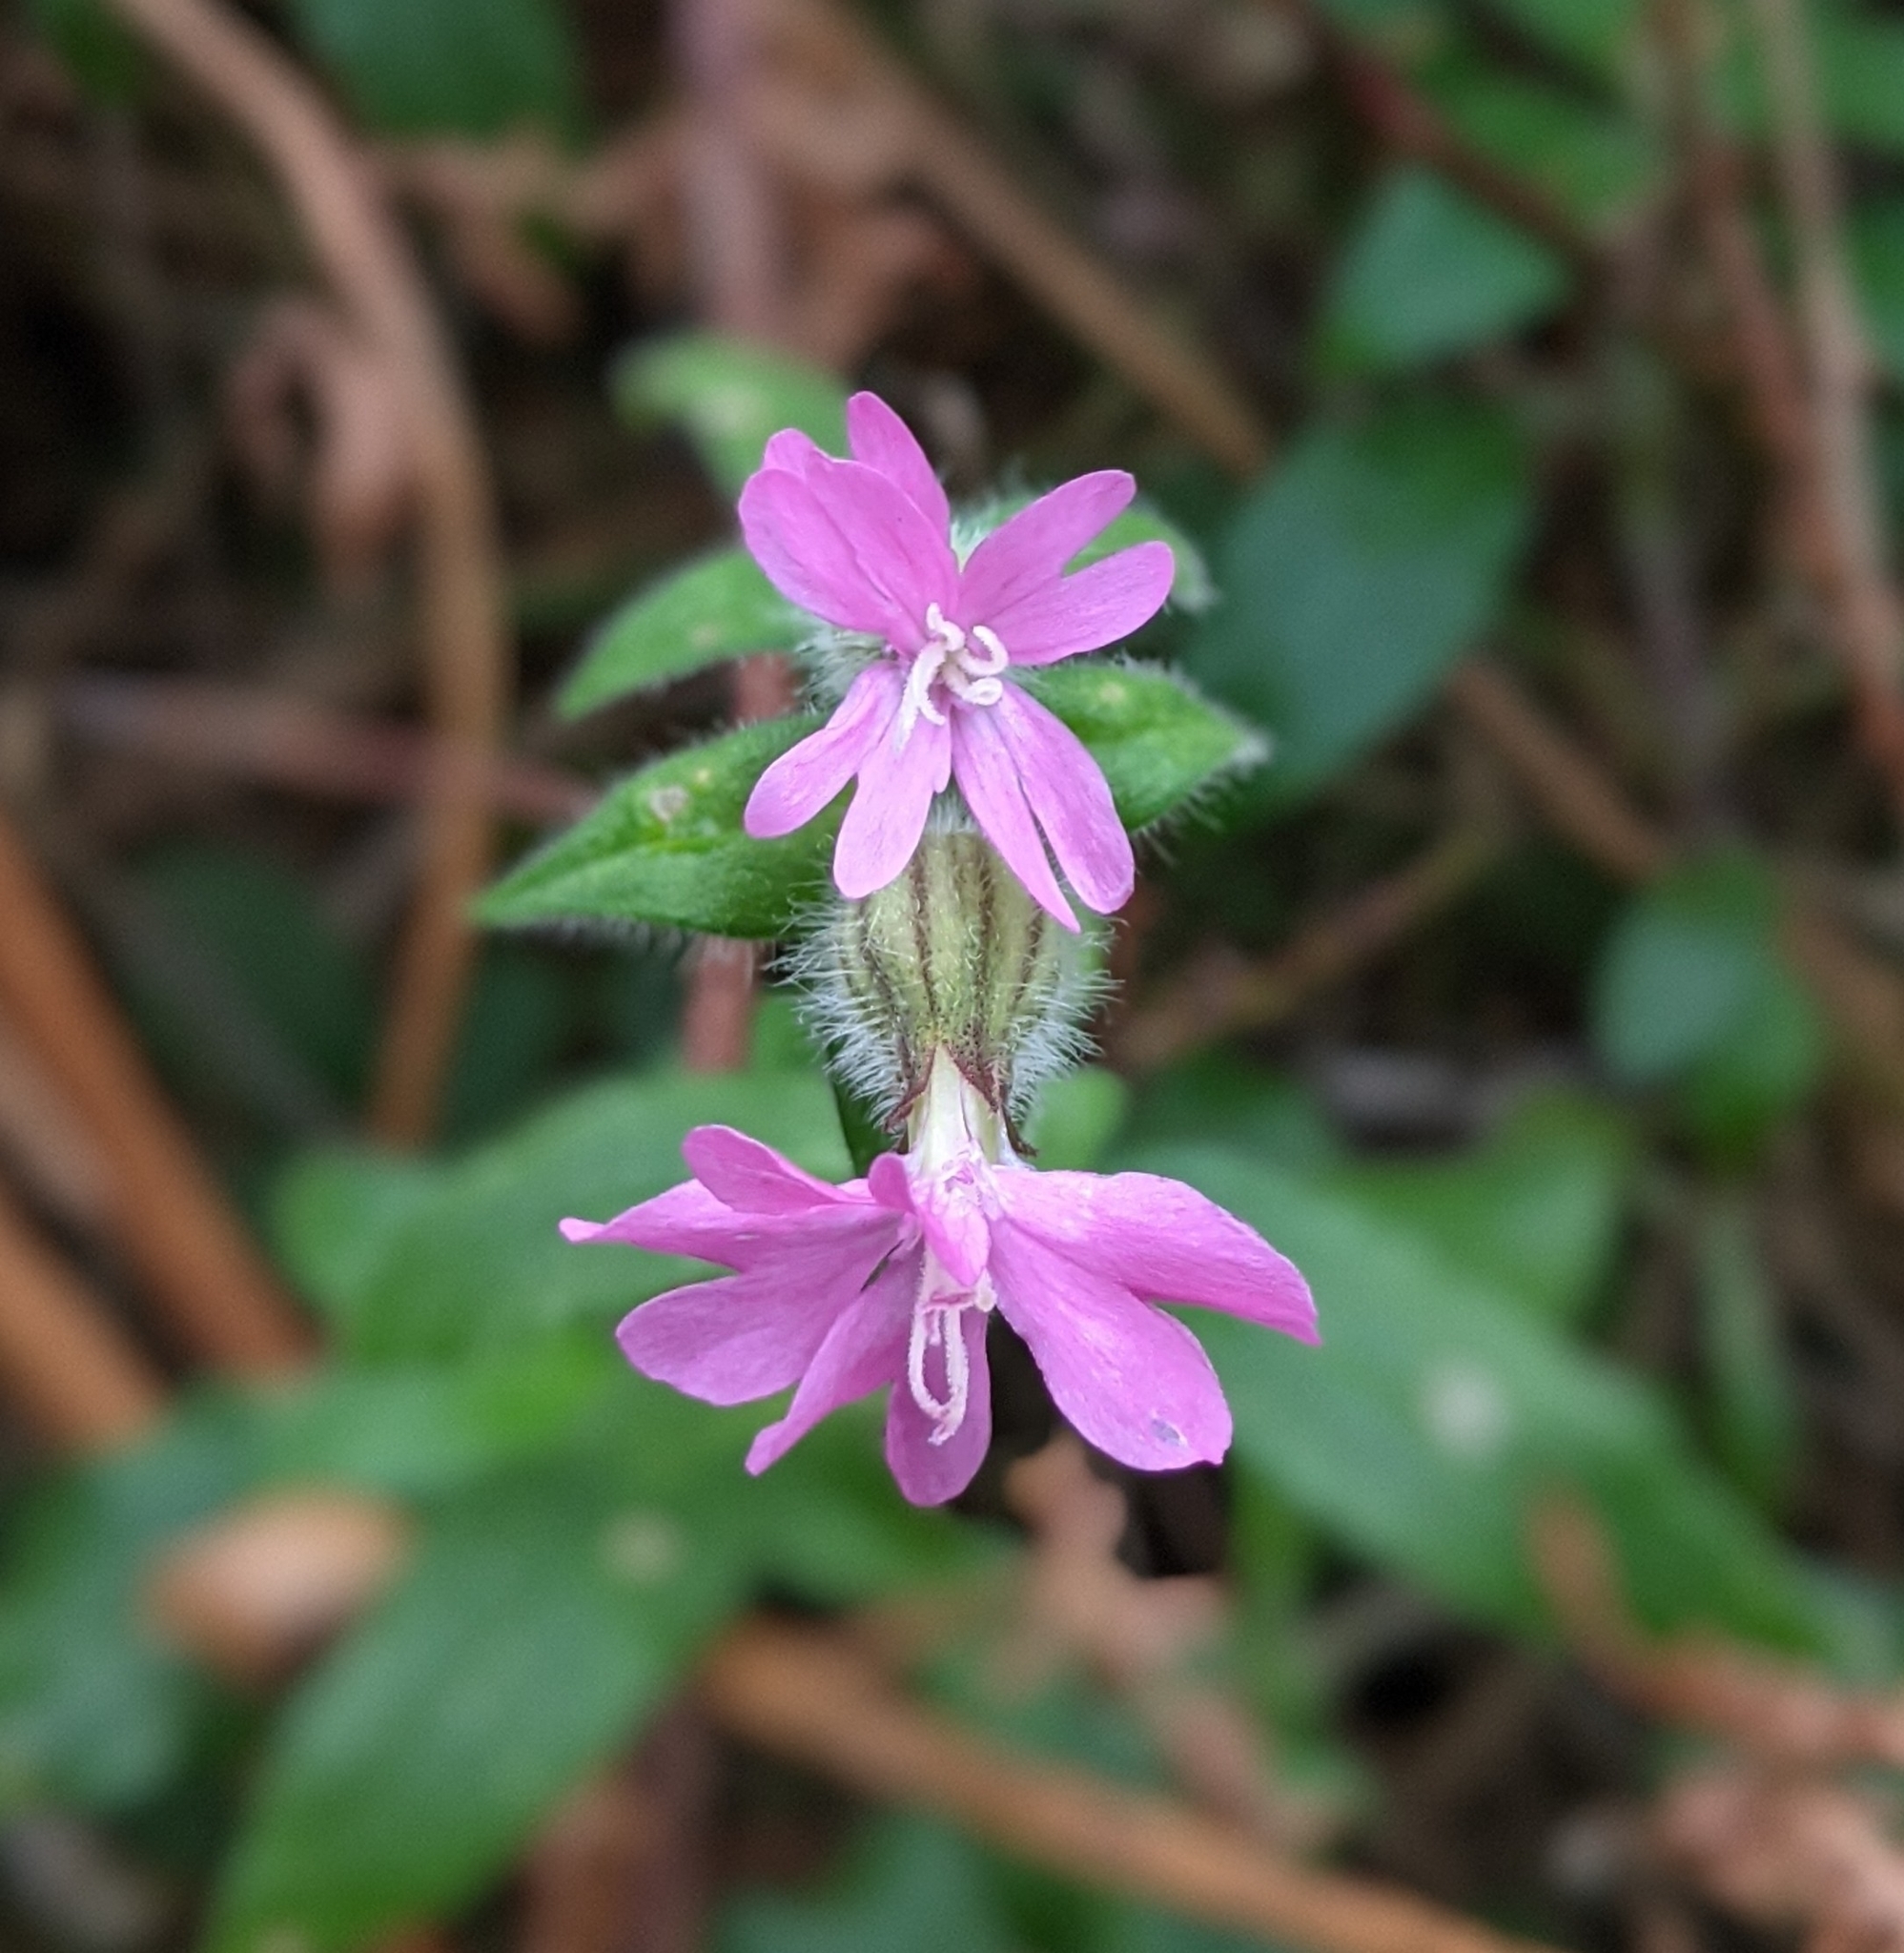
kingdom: Plantae
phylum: Tracheophyta
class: Magnoliopsida
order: Caryophyllales
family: Caryophyllaceae
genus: Silene
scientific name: Silene dioica
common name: Red campion
